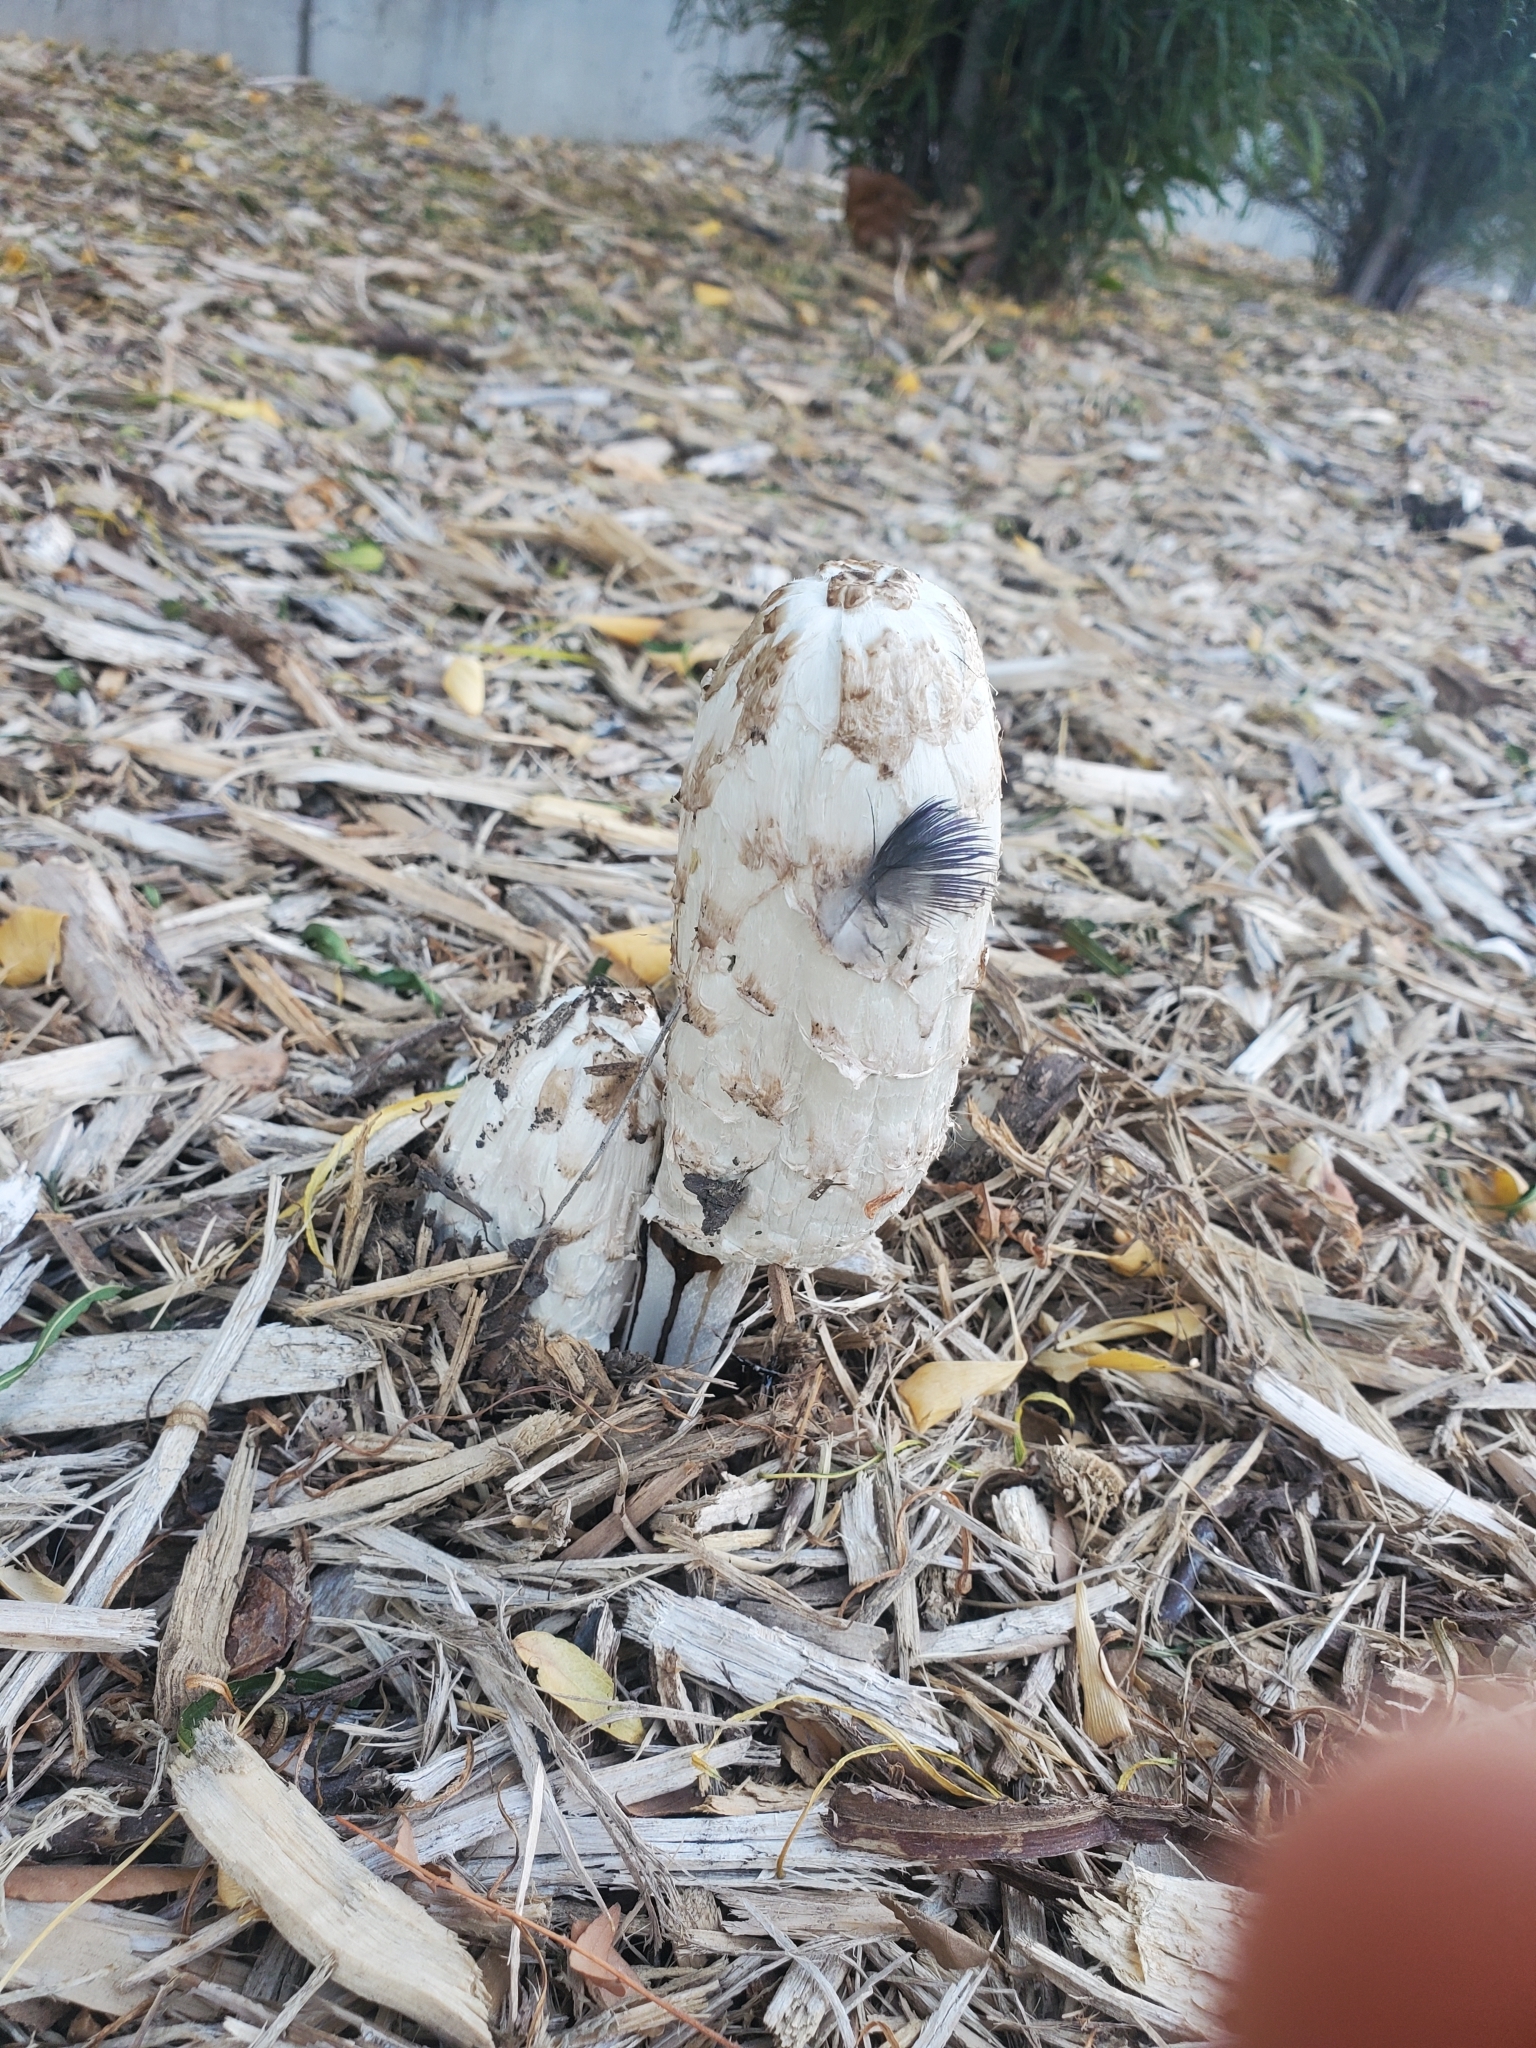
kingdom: Fungi
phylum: Basidiomycota
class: Agaricomycetes
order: Agaricales
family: Agaricaceae
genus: Coprinus
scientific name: Coprinus comatus
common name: Lawyer's wig
